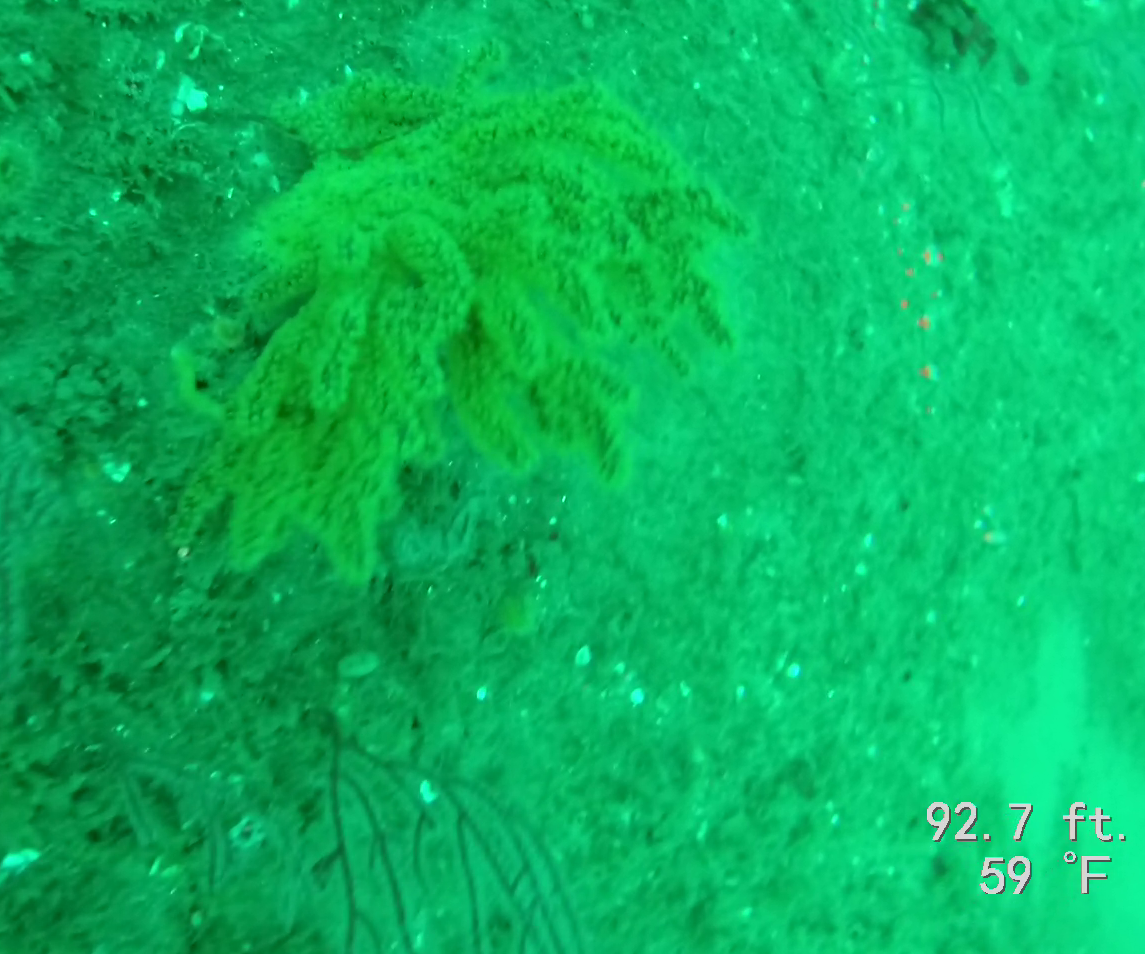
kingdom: Animalia
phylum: Cnidaria
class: Anthozoa
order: Malacalcyonacea
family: Plexauridae
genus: Muricea
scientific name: Muricea californica
